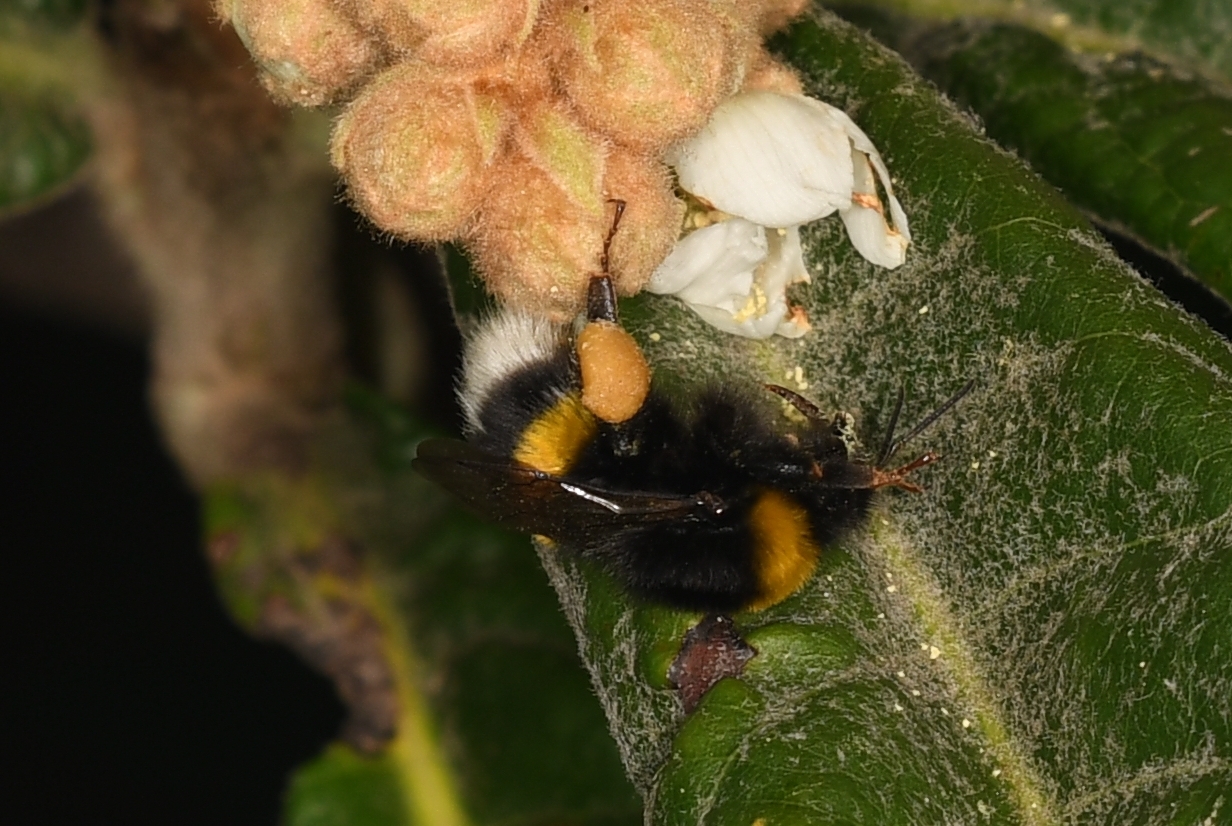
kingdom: Animalia
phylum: Arthropoda
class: Insecta
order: Hymenoptera
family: Apidae
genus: Bombus
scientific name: Bombus terrestris
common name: Buff-tailed bumblebee
